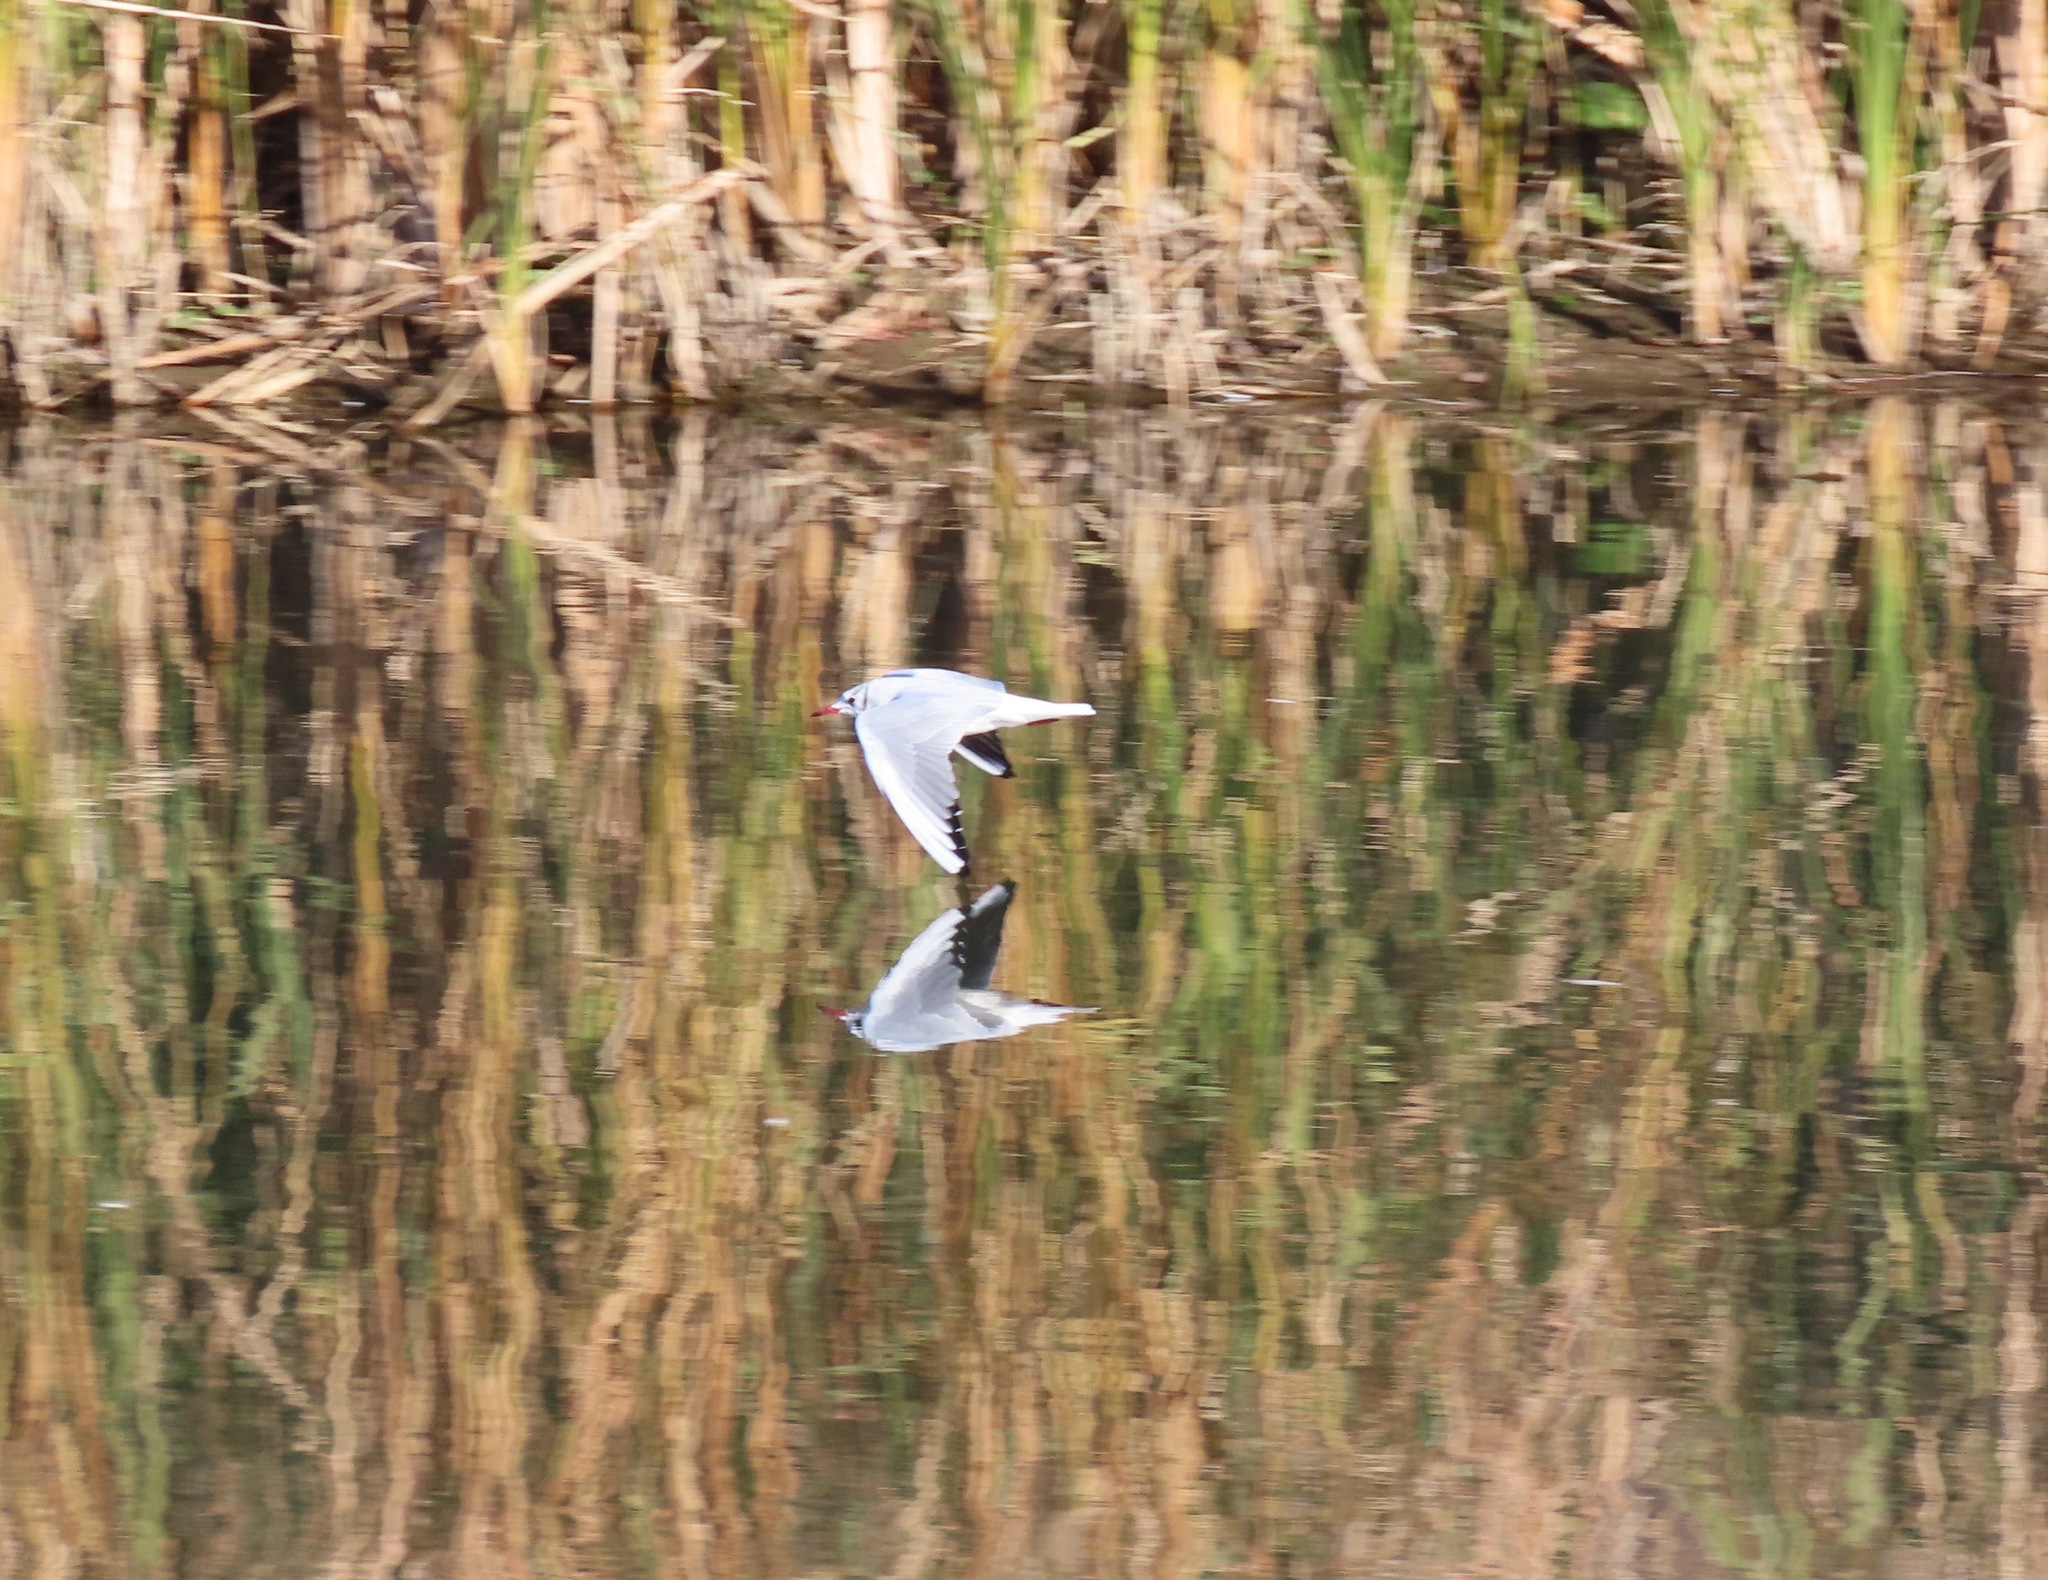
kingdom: Animalia
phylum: Chordata
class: Aves
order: Charadriiformes
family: Laridae
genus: Chroicocephalus
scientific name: Chroicocephalus ridibundus
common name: Black-headed gull
